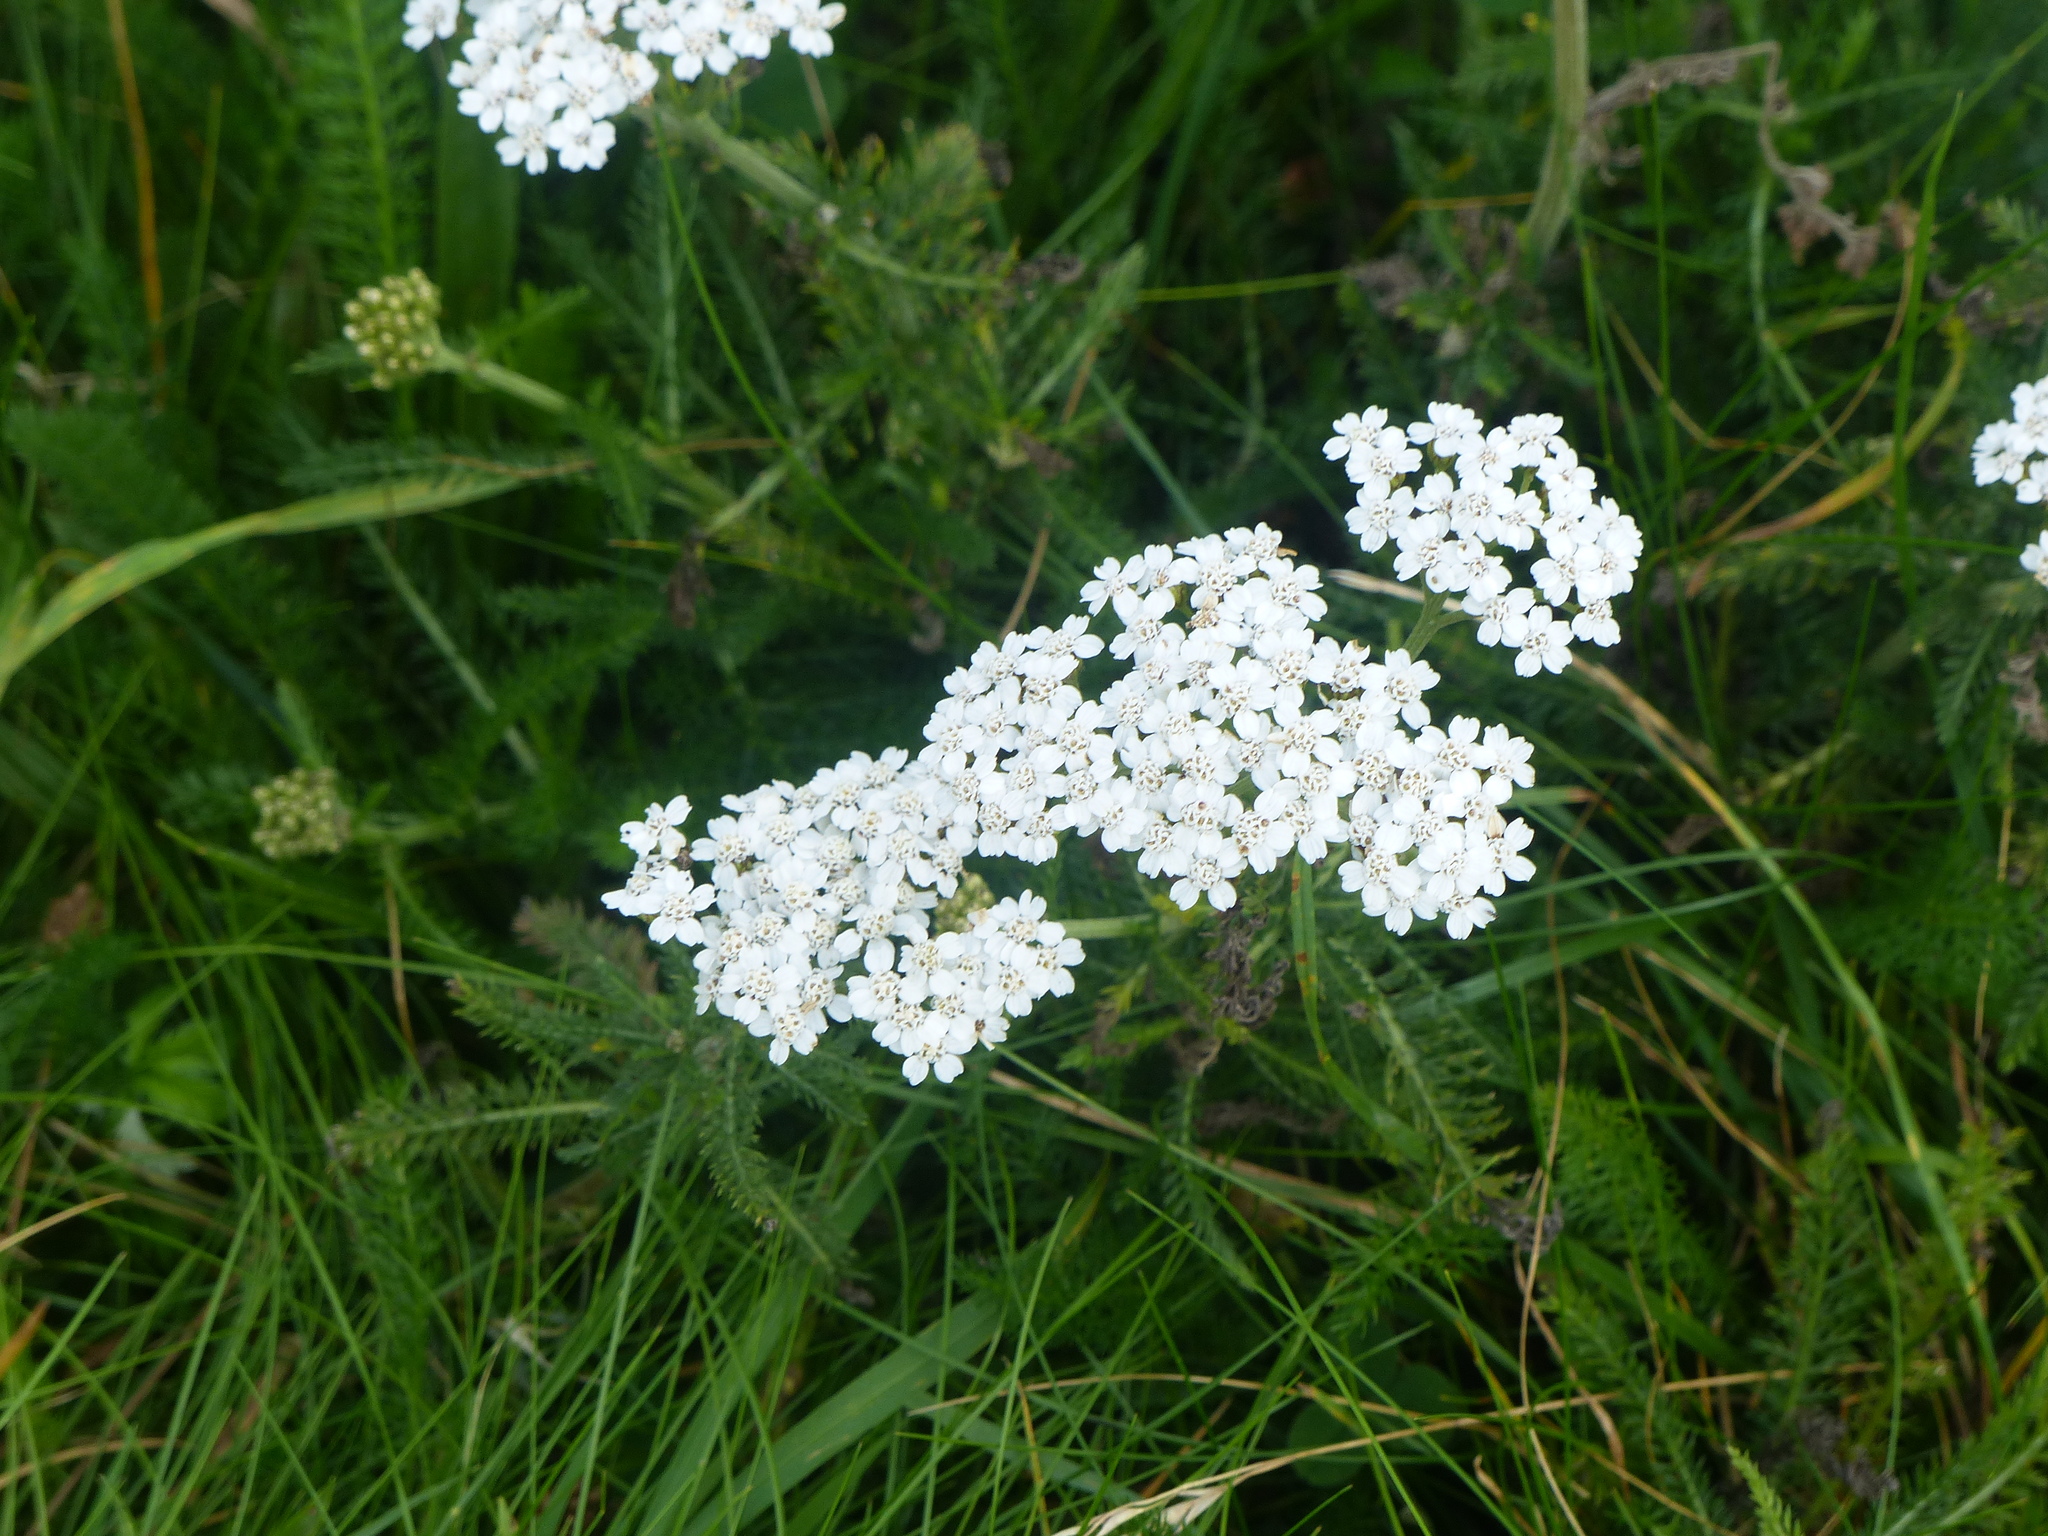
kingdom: Plantae
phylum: Tracheophyta
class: Magnoliopsida
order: Asterales
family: Asteraceae
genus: Achillea
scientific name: Achillea millefolium
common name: Yarrow
